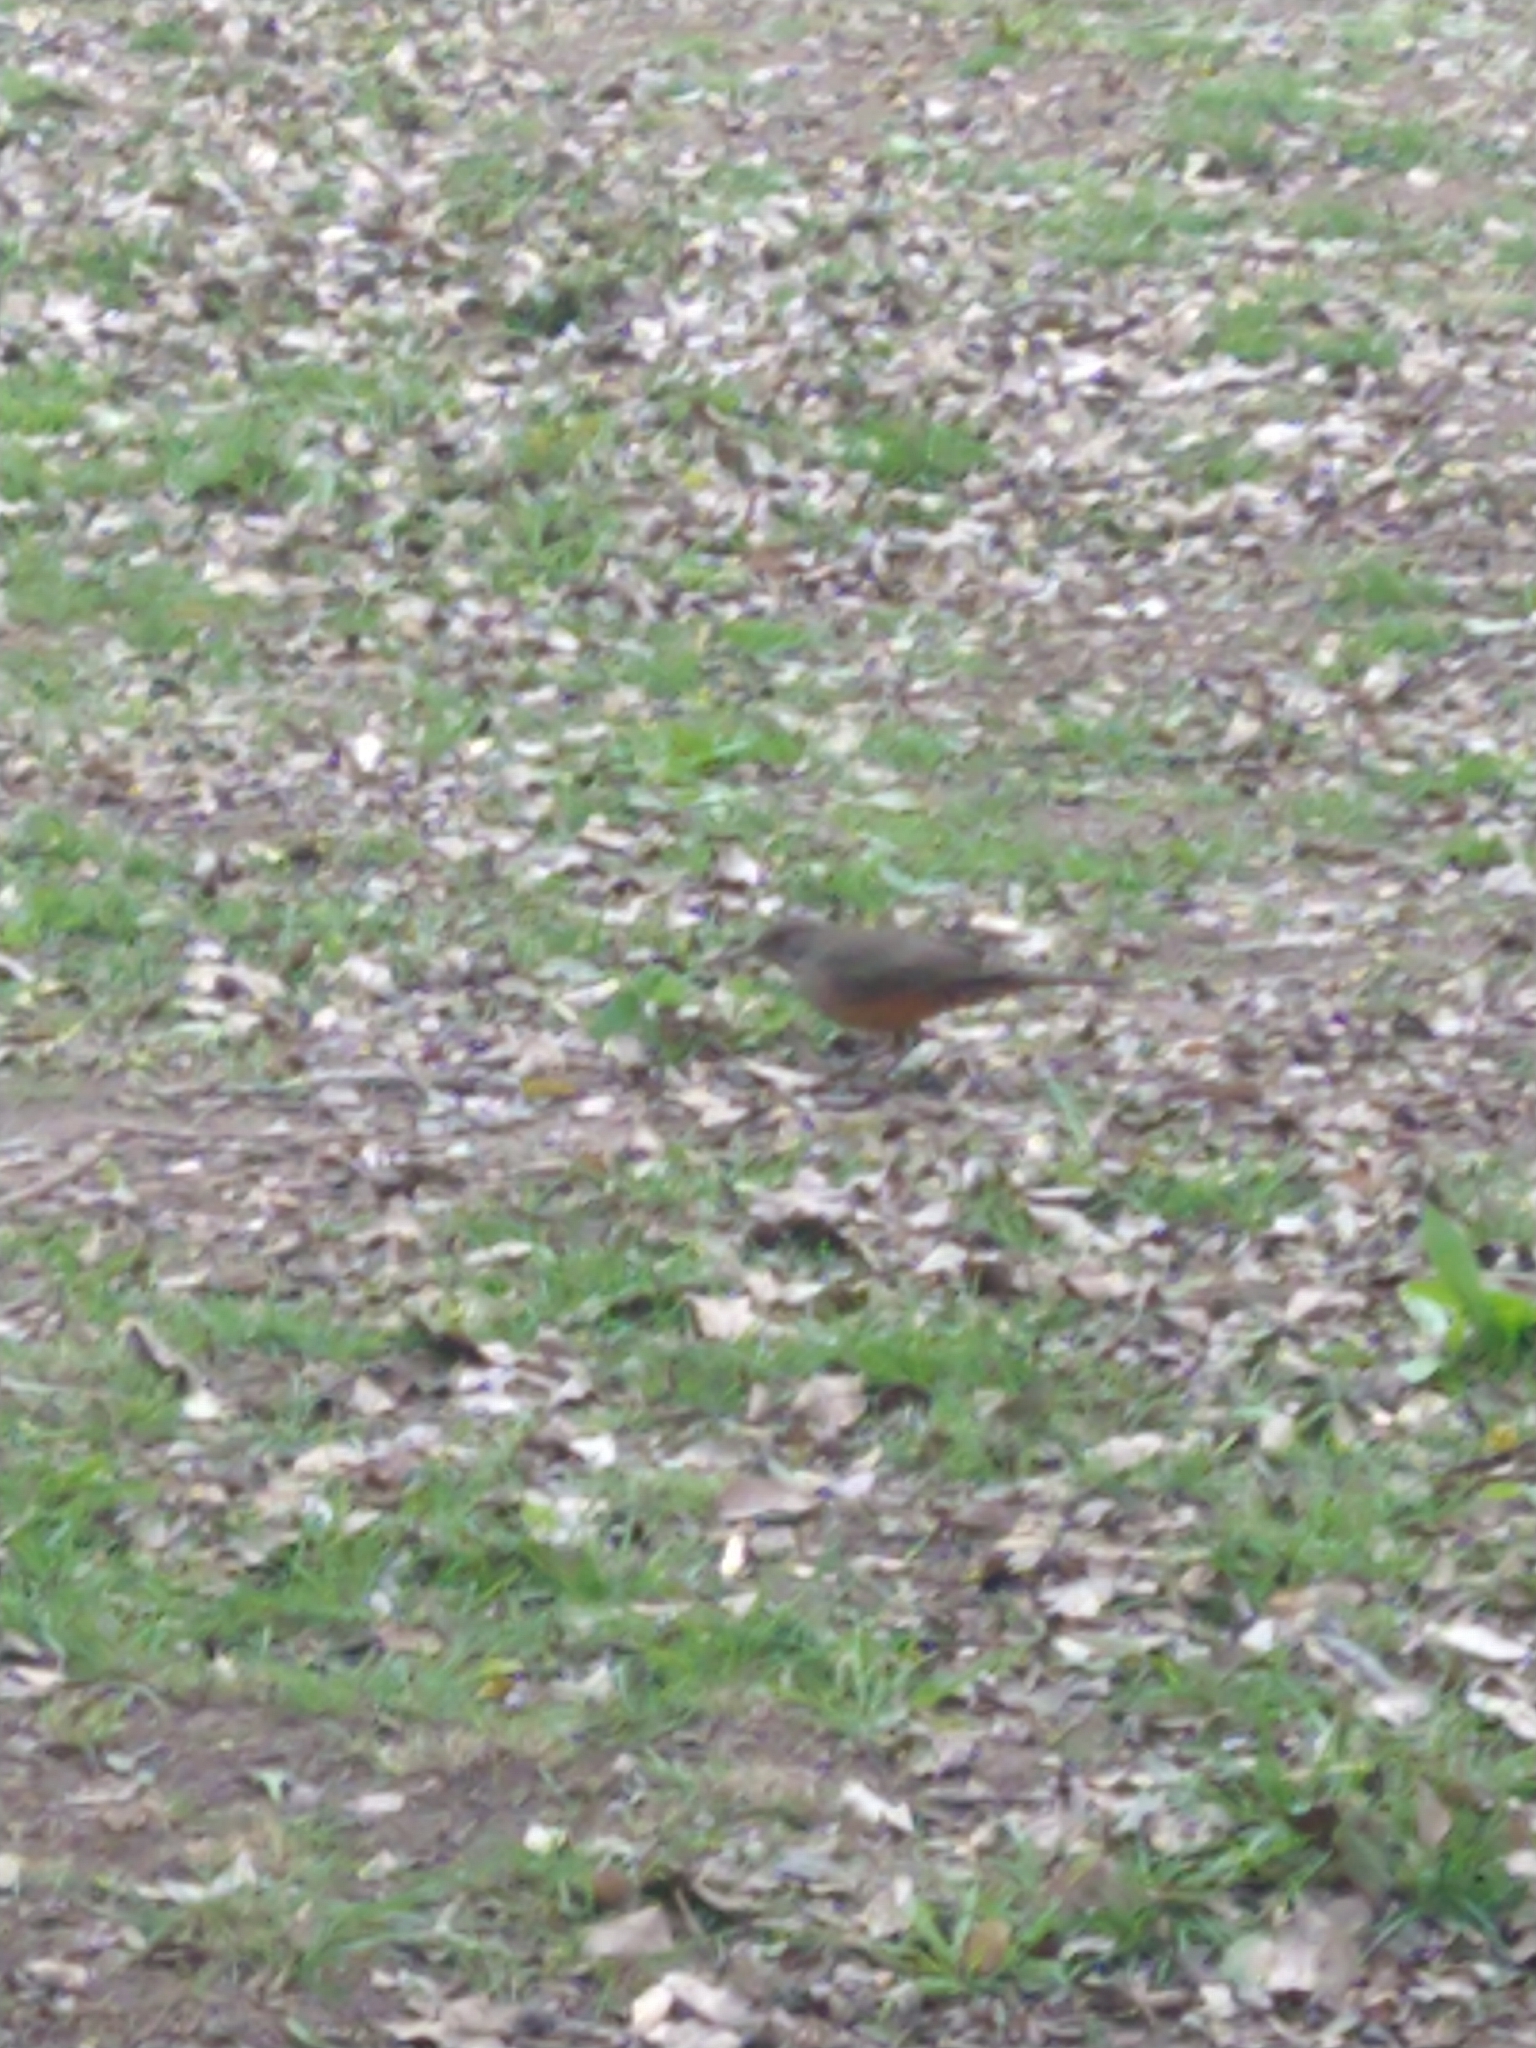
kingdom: Animalia
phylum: Chordata
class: Aves
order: Passeriformes
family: Turdidae
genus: Turdus
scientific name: Turdus rufiventris
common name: Rufous-bellied thrush
